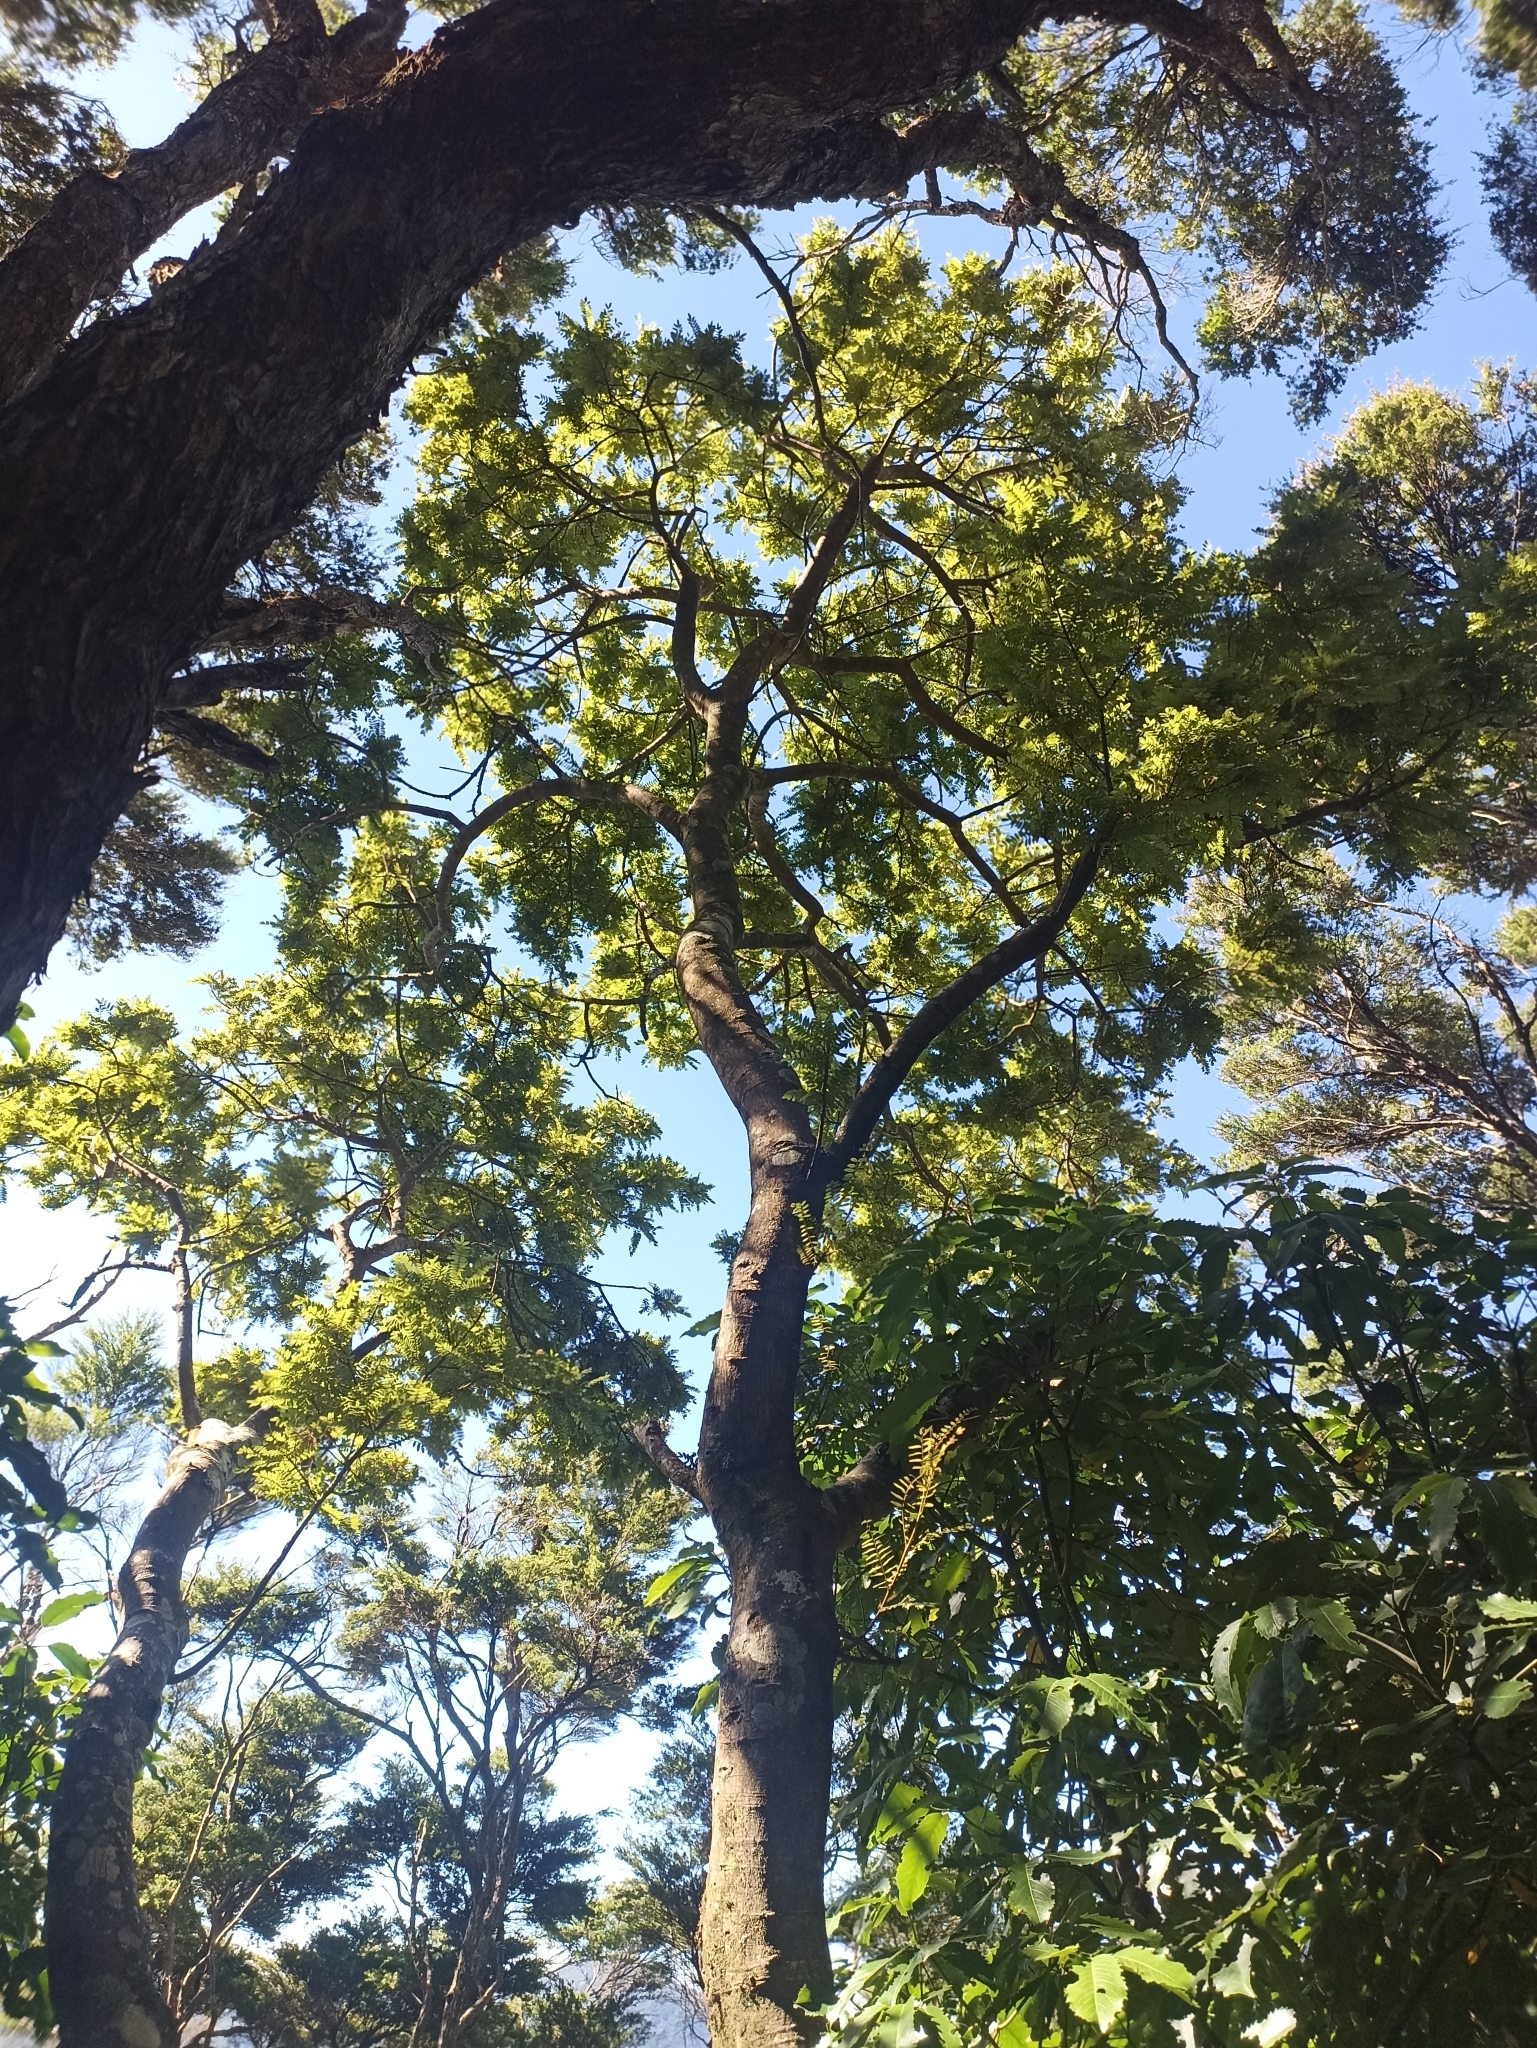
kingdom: Plantae
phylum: Tracheophyta
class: Magnoliopsida
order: Fabales
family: Fabaceae
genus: Sophora
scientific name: Sophora tetraptera
